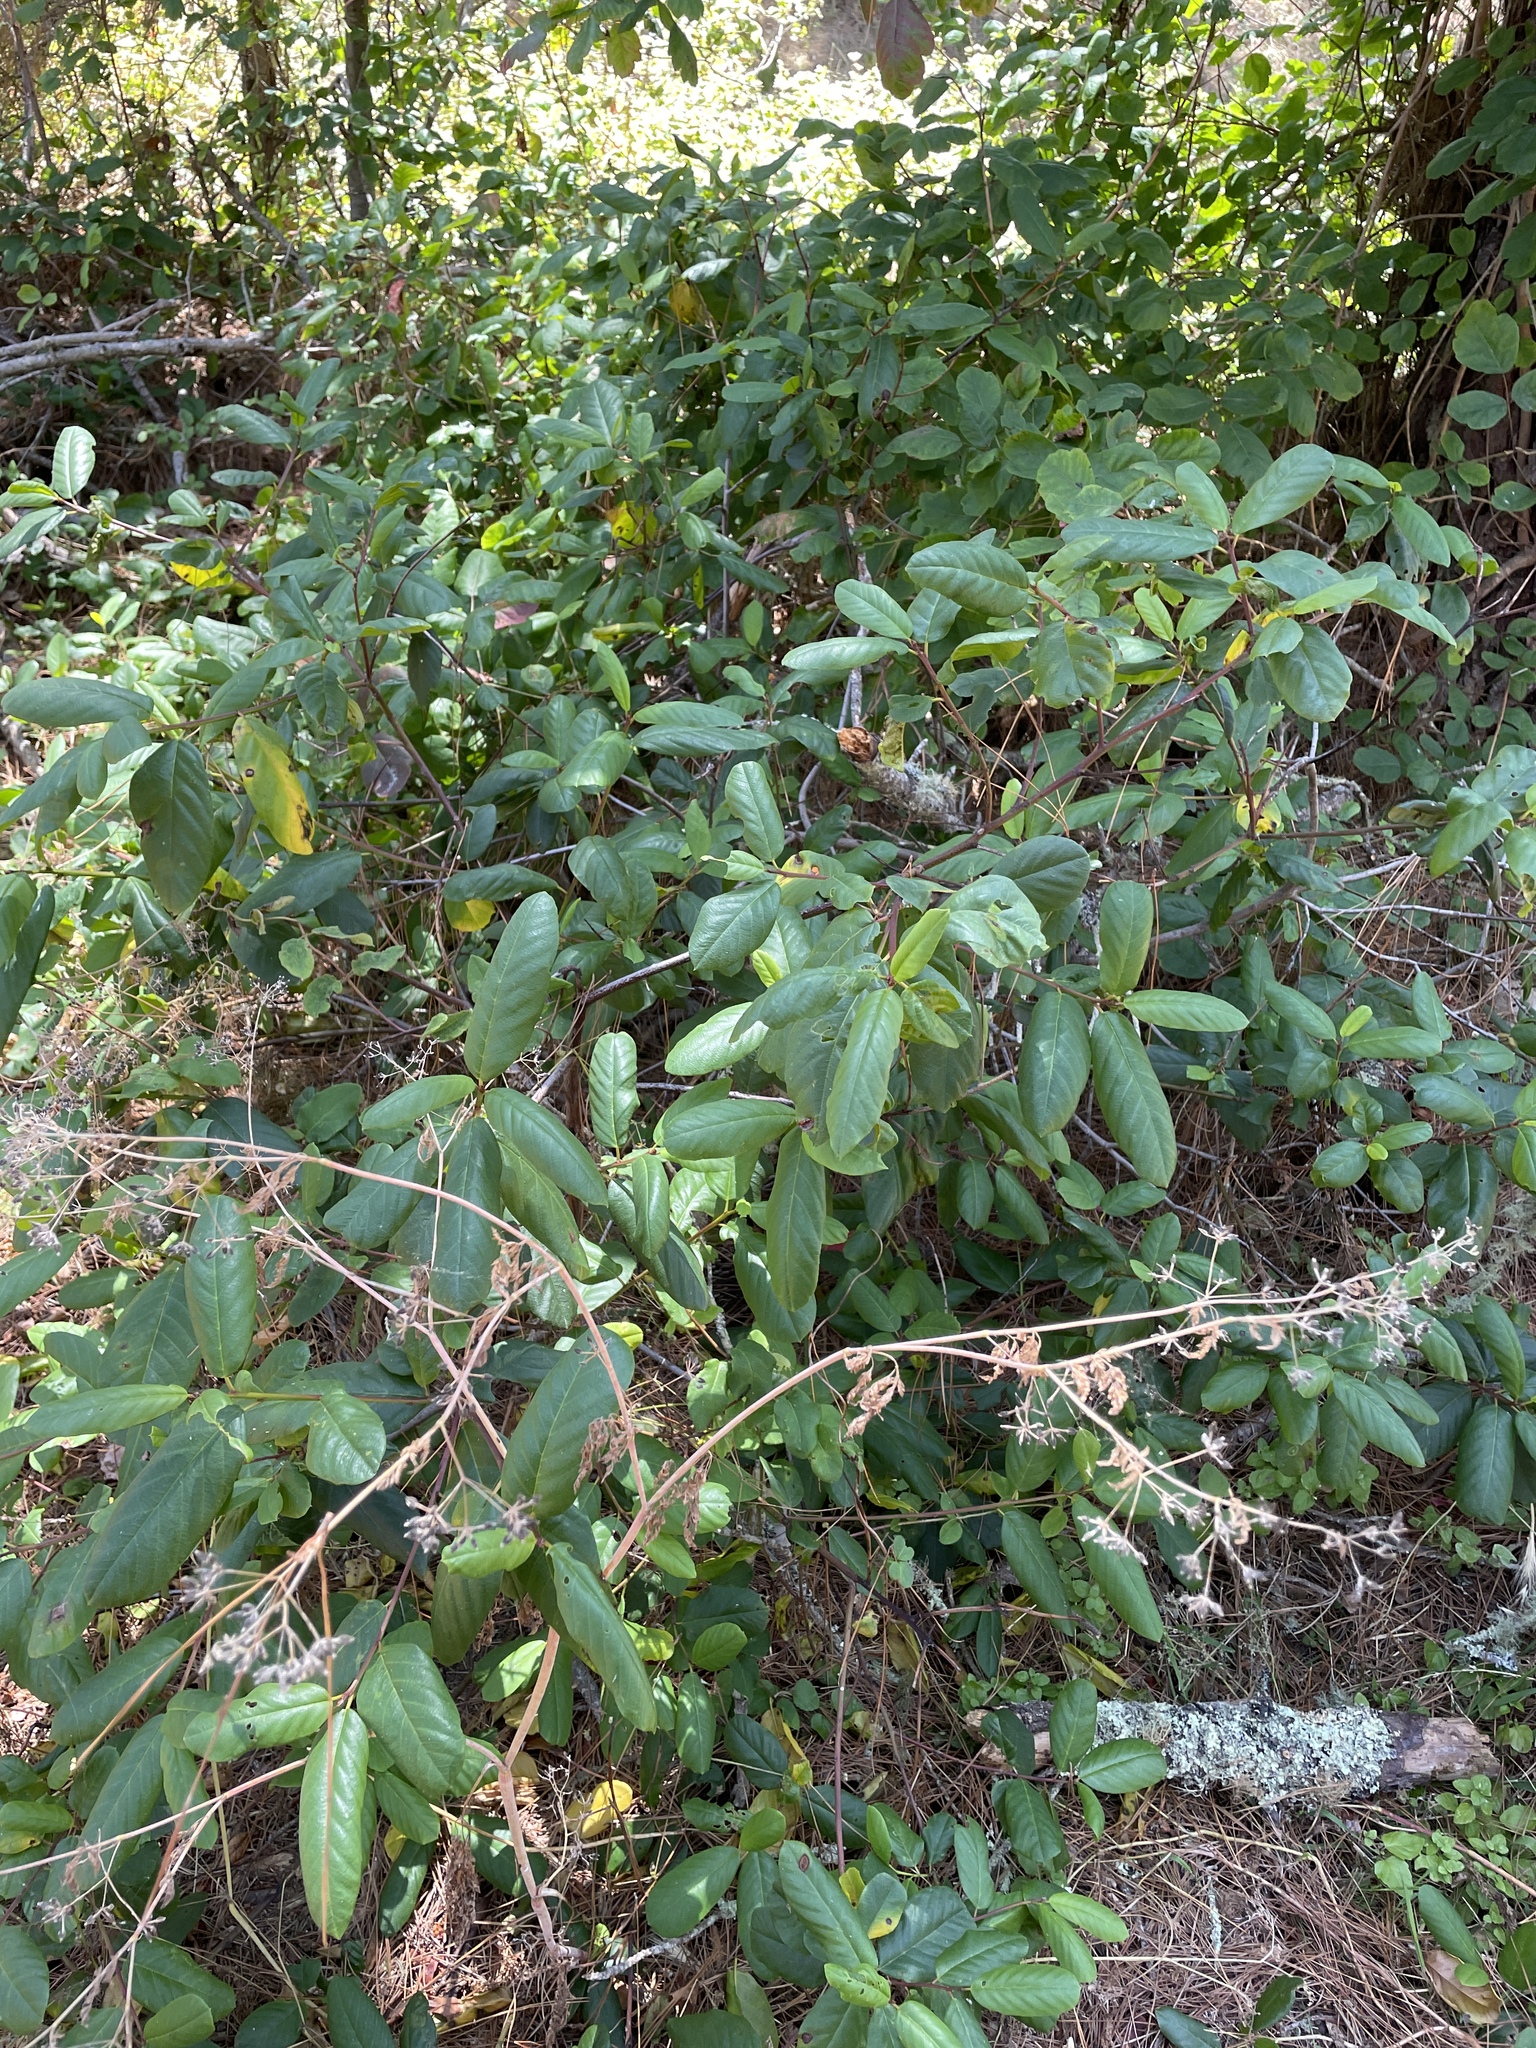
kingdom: Plantae
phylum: Tracheophyta
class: Magnoliopsida
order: Rosales
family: Rhamnaceae
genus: Frangula
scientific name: Frangula californica
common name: California buckthorn
